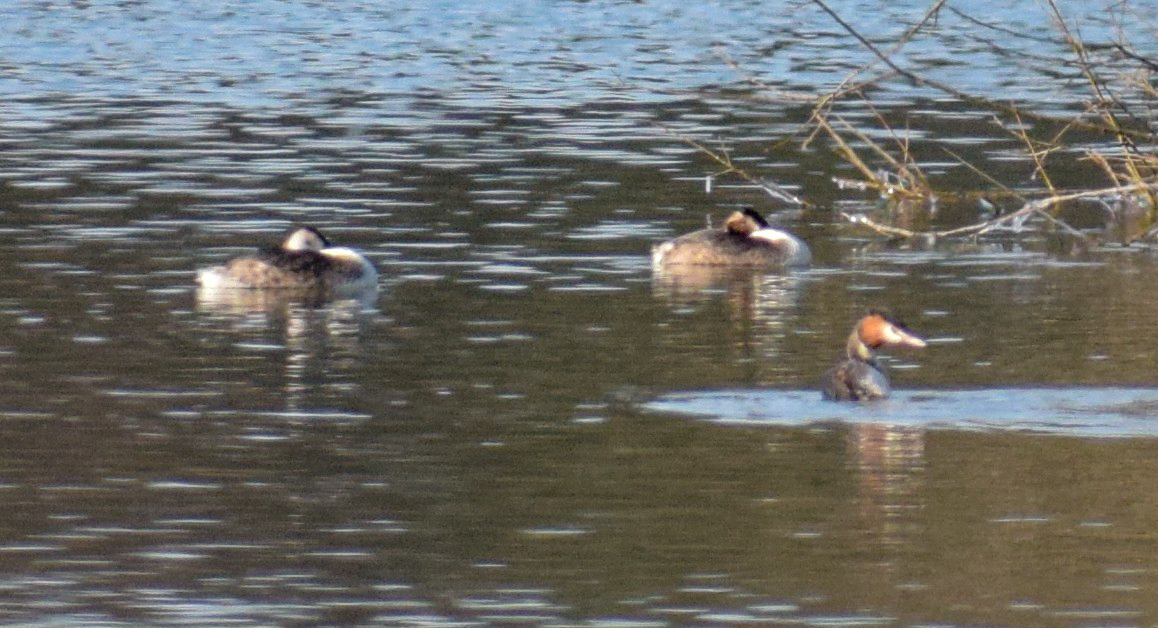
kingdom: Animalia
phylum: Chordata
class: Aves
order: Podicipediformes
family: Podicipedidae
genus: Podiceps
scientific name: Podiceps cristatus
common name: Great crested grebe
